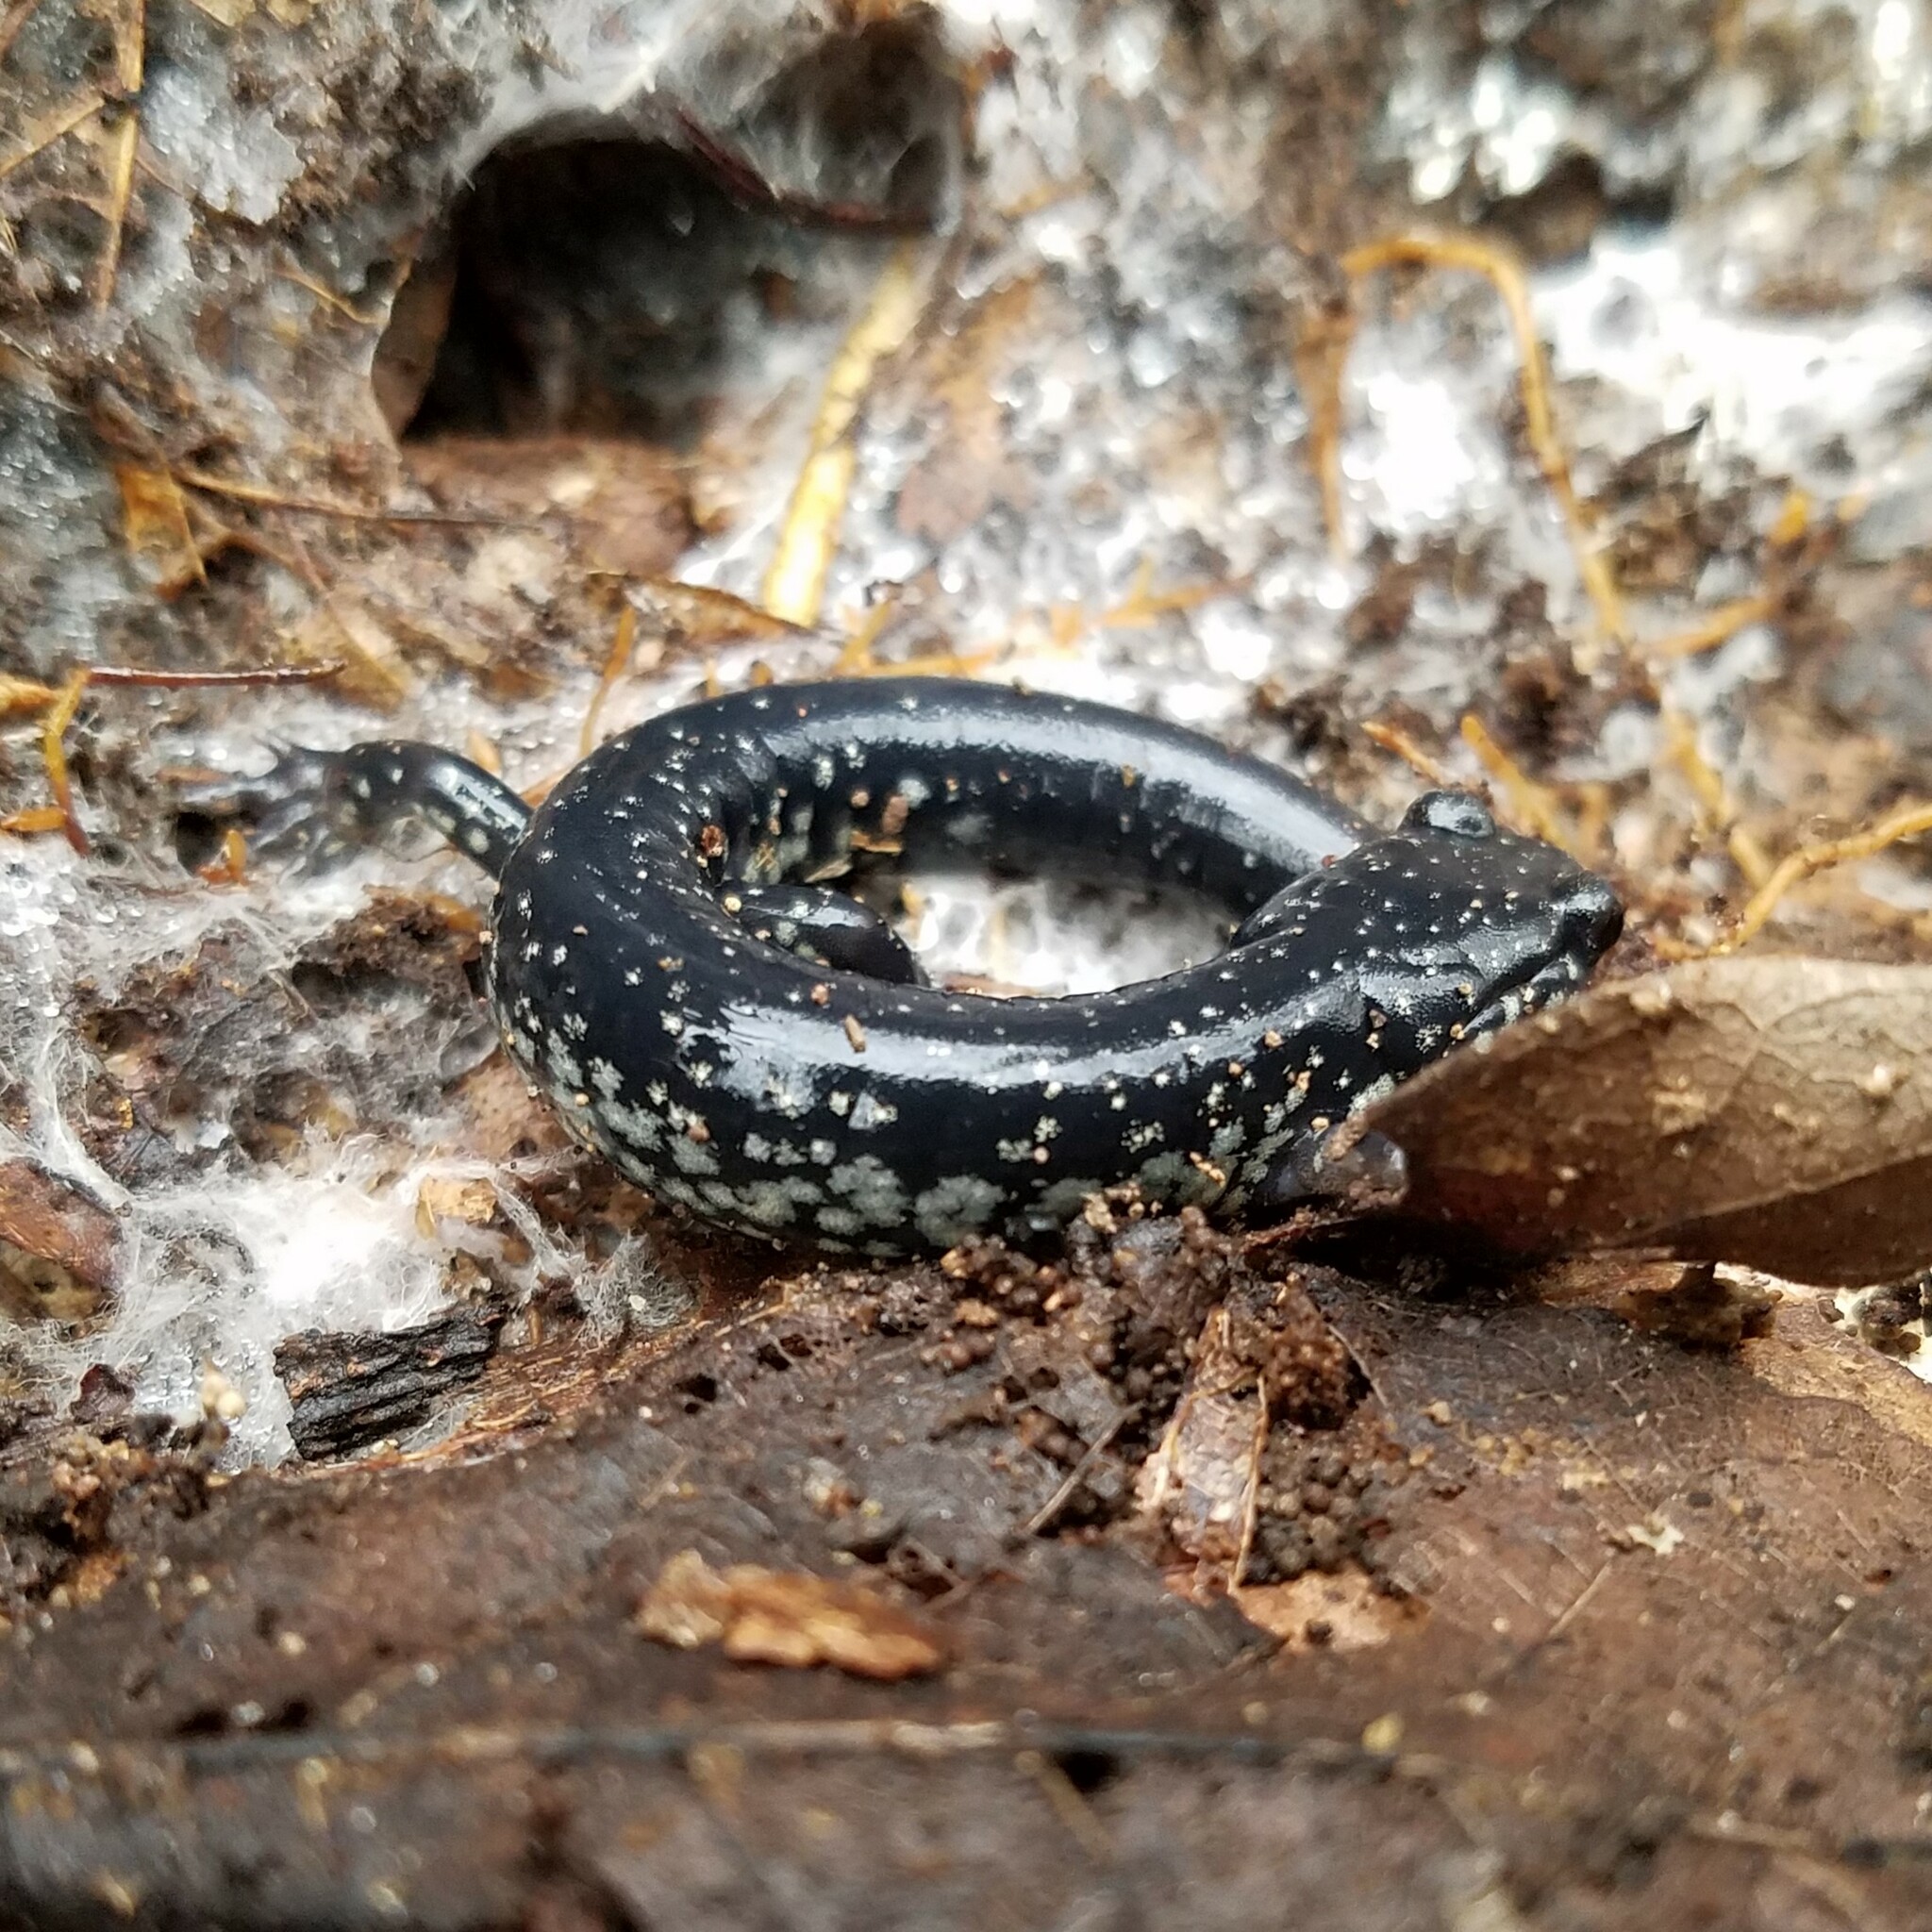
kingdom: Animalia
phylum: Chordata
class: Amphibia
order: Caudata
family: Plethodontidae
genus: Plethodon
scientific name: Plethodon glutinosus
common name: Northern slimy salamander
